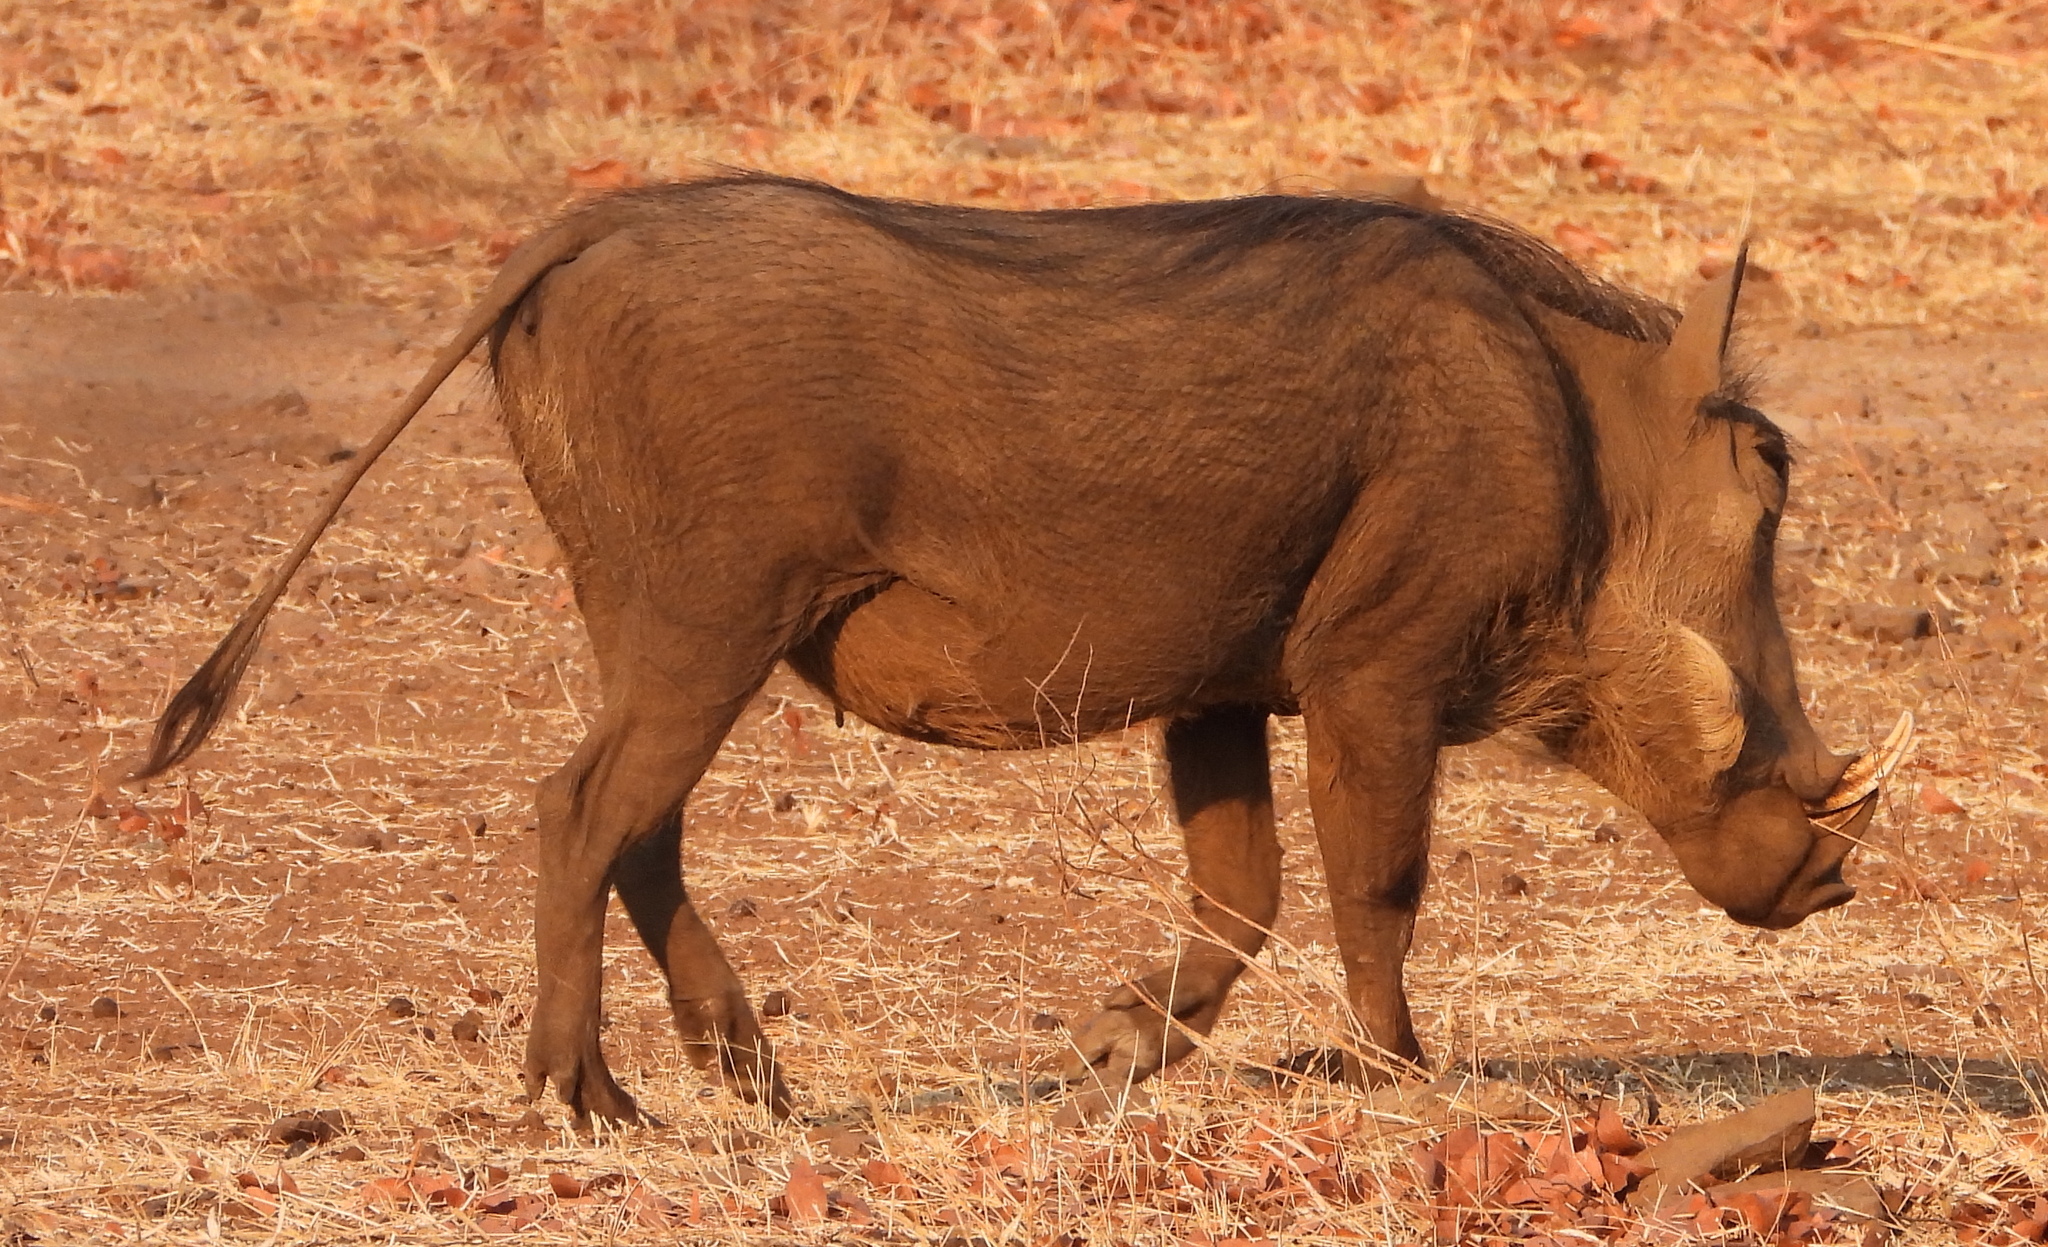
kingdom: Animalia
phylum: Chordata
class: Mammalia
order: Artiodactyla
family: Suidae
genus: Phacochoerus
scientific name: Phacochoerus africanus
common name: Common warthog
